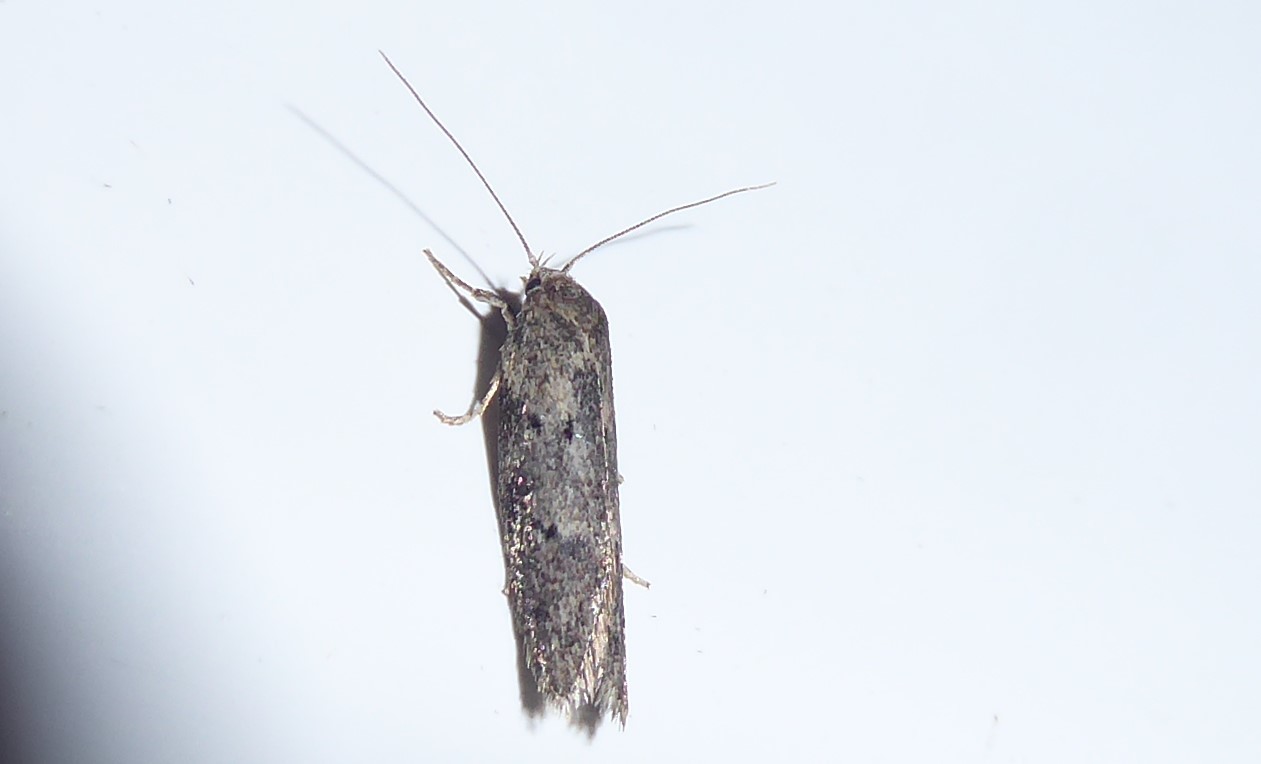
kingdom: Animalia
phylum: Arthropoda
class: Insecta
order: Lepidoptera
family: Oecophoridae
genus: Leptocroca
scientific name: Leptocroca
